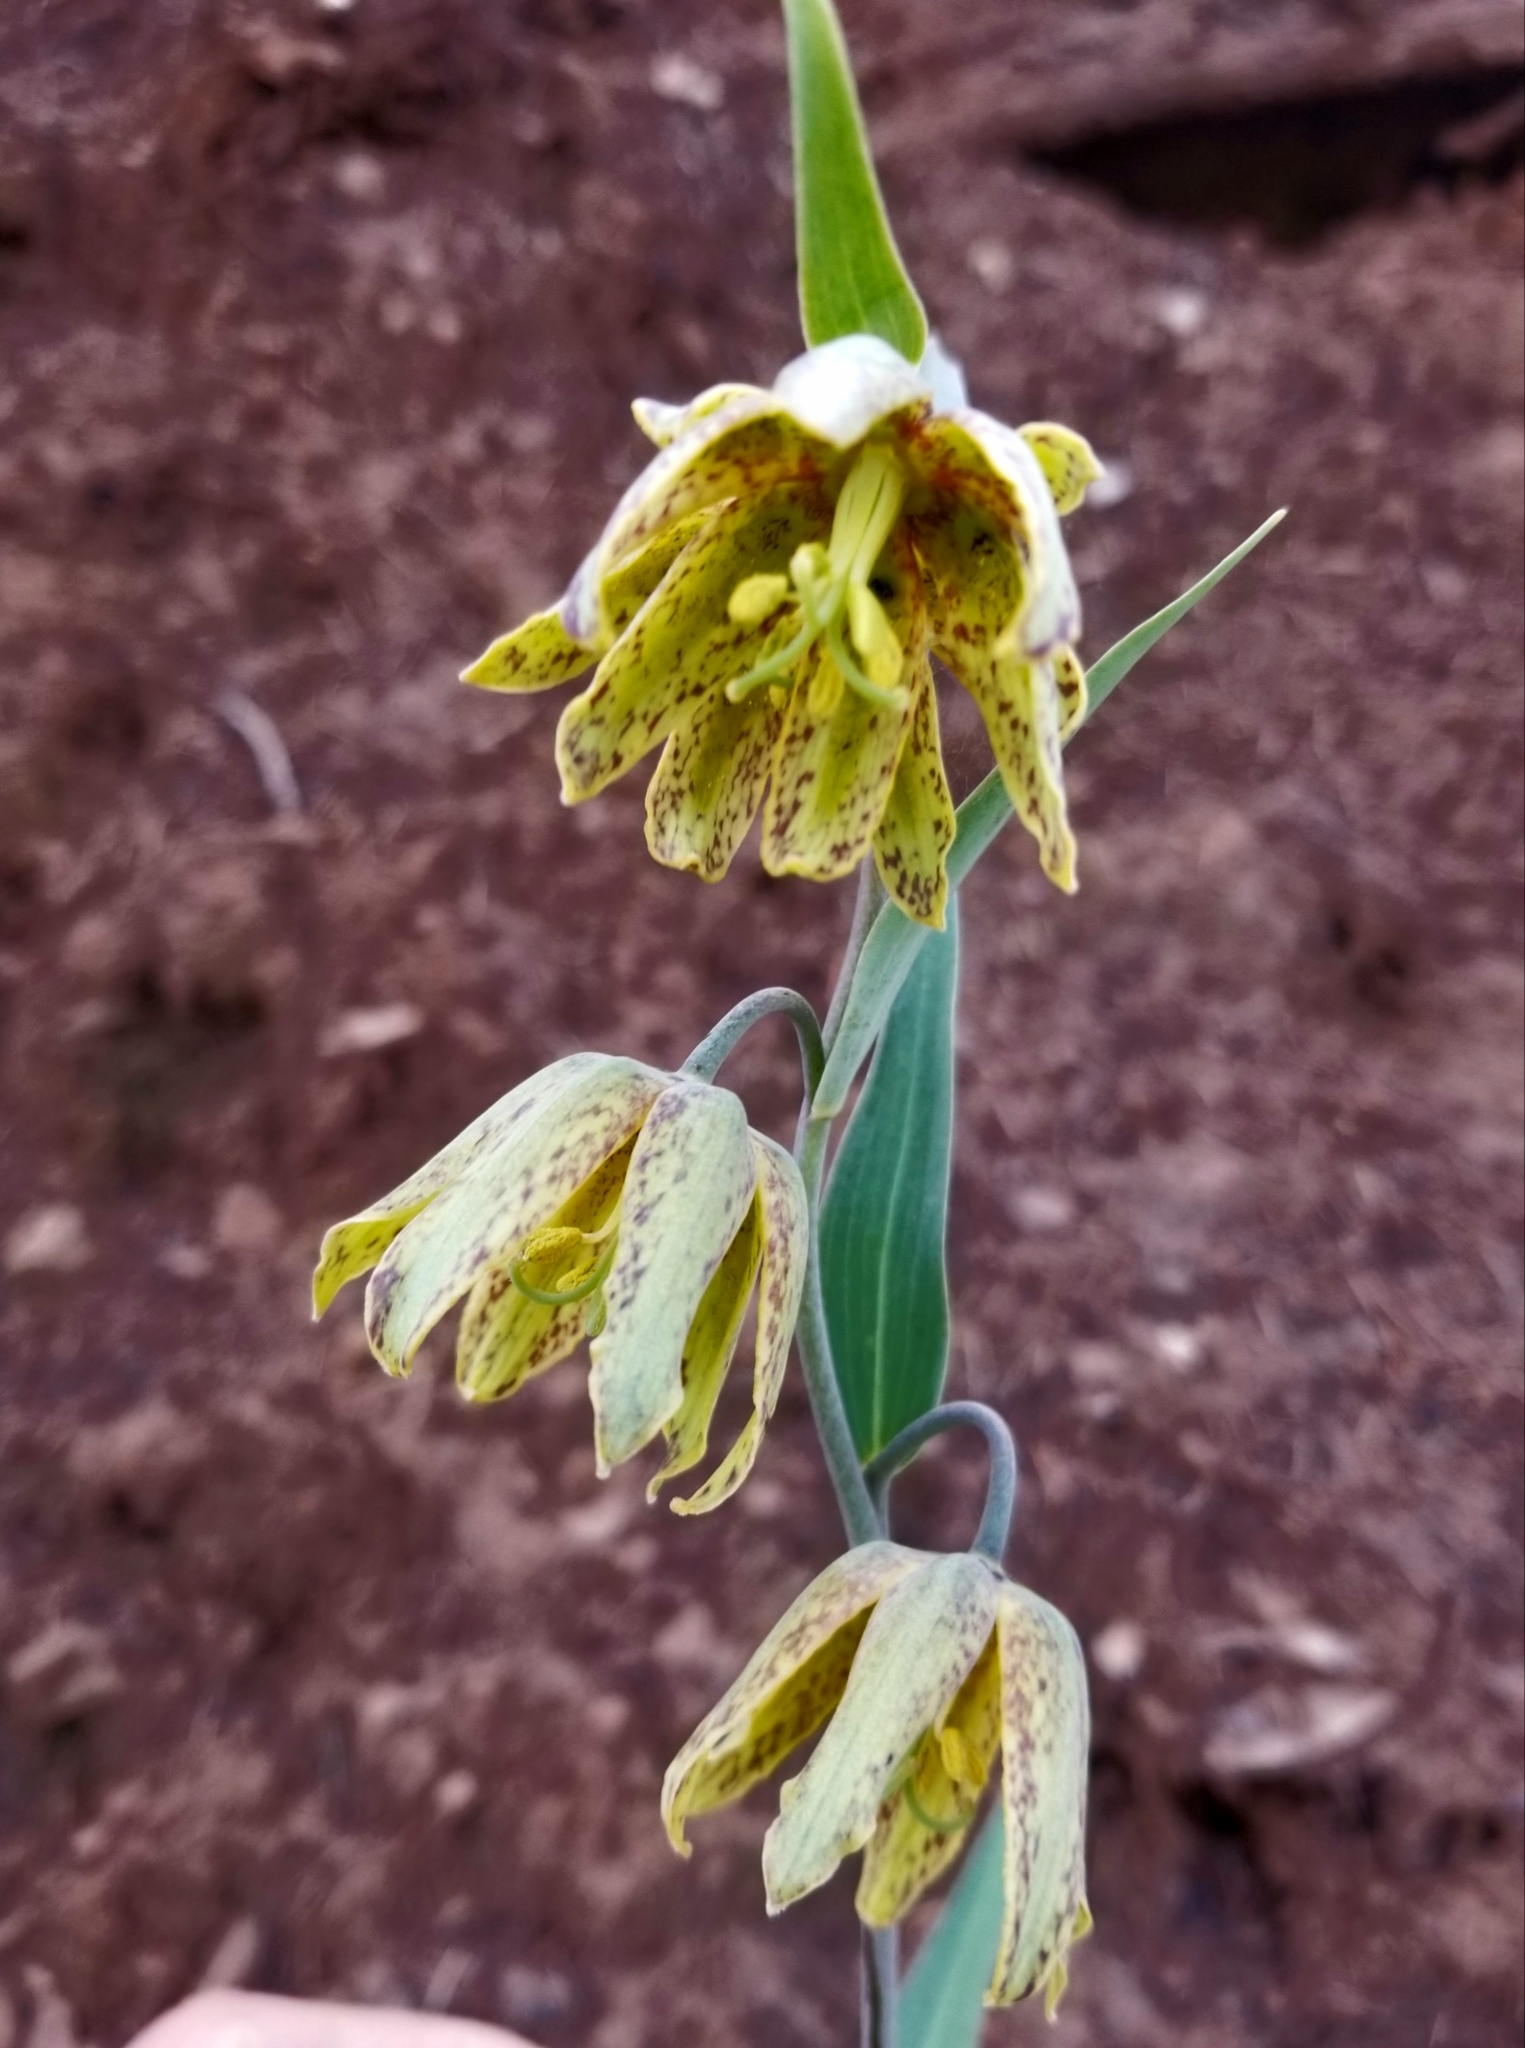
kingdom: Plantae
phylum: Tracheophyta
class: Liliopsida
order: Liliales
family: Liliaceae
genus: Fritillaria
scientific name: Fritillaria affinis
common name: Ojai fritillary
